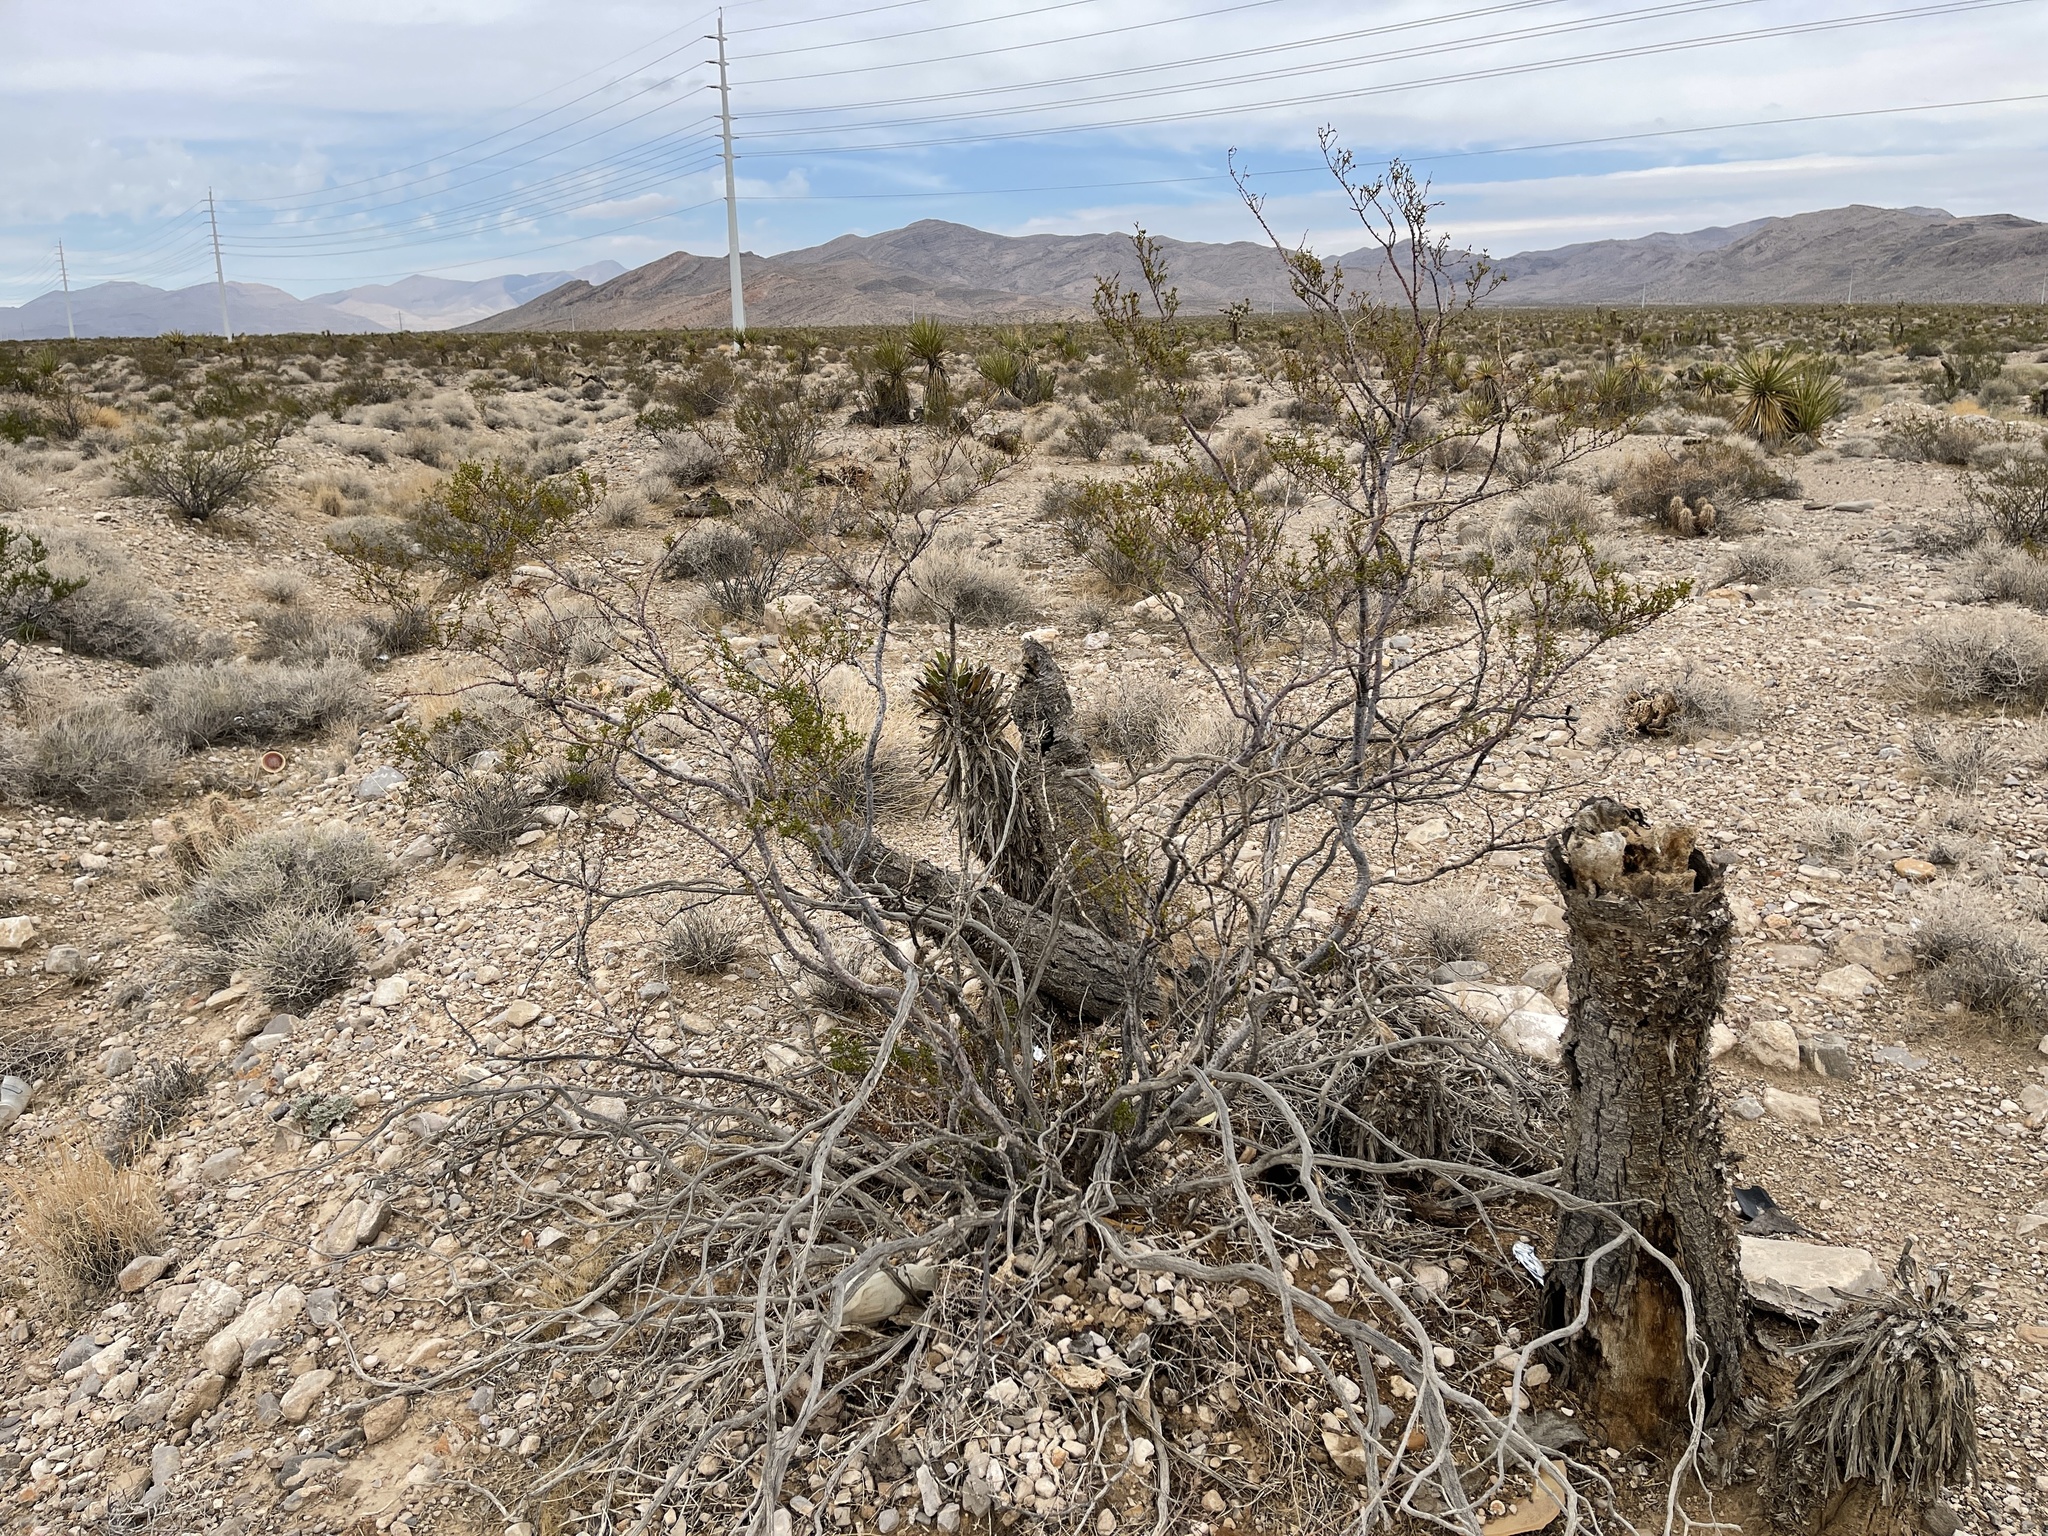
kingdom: Plantae
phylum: Tracheophyta
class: Magnoliopsida
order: Zygophyllales
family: Zygophyllaceae
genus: Larrea
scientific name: Larrea tridentata
